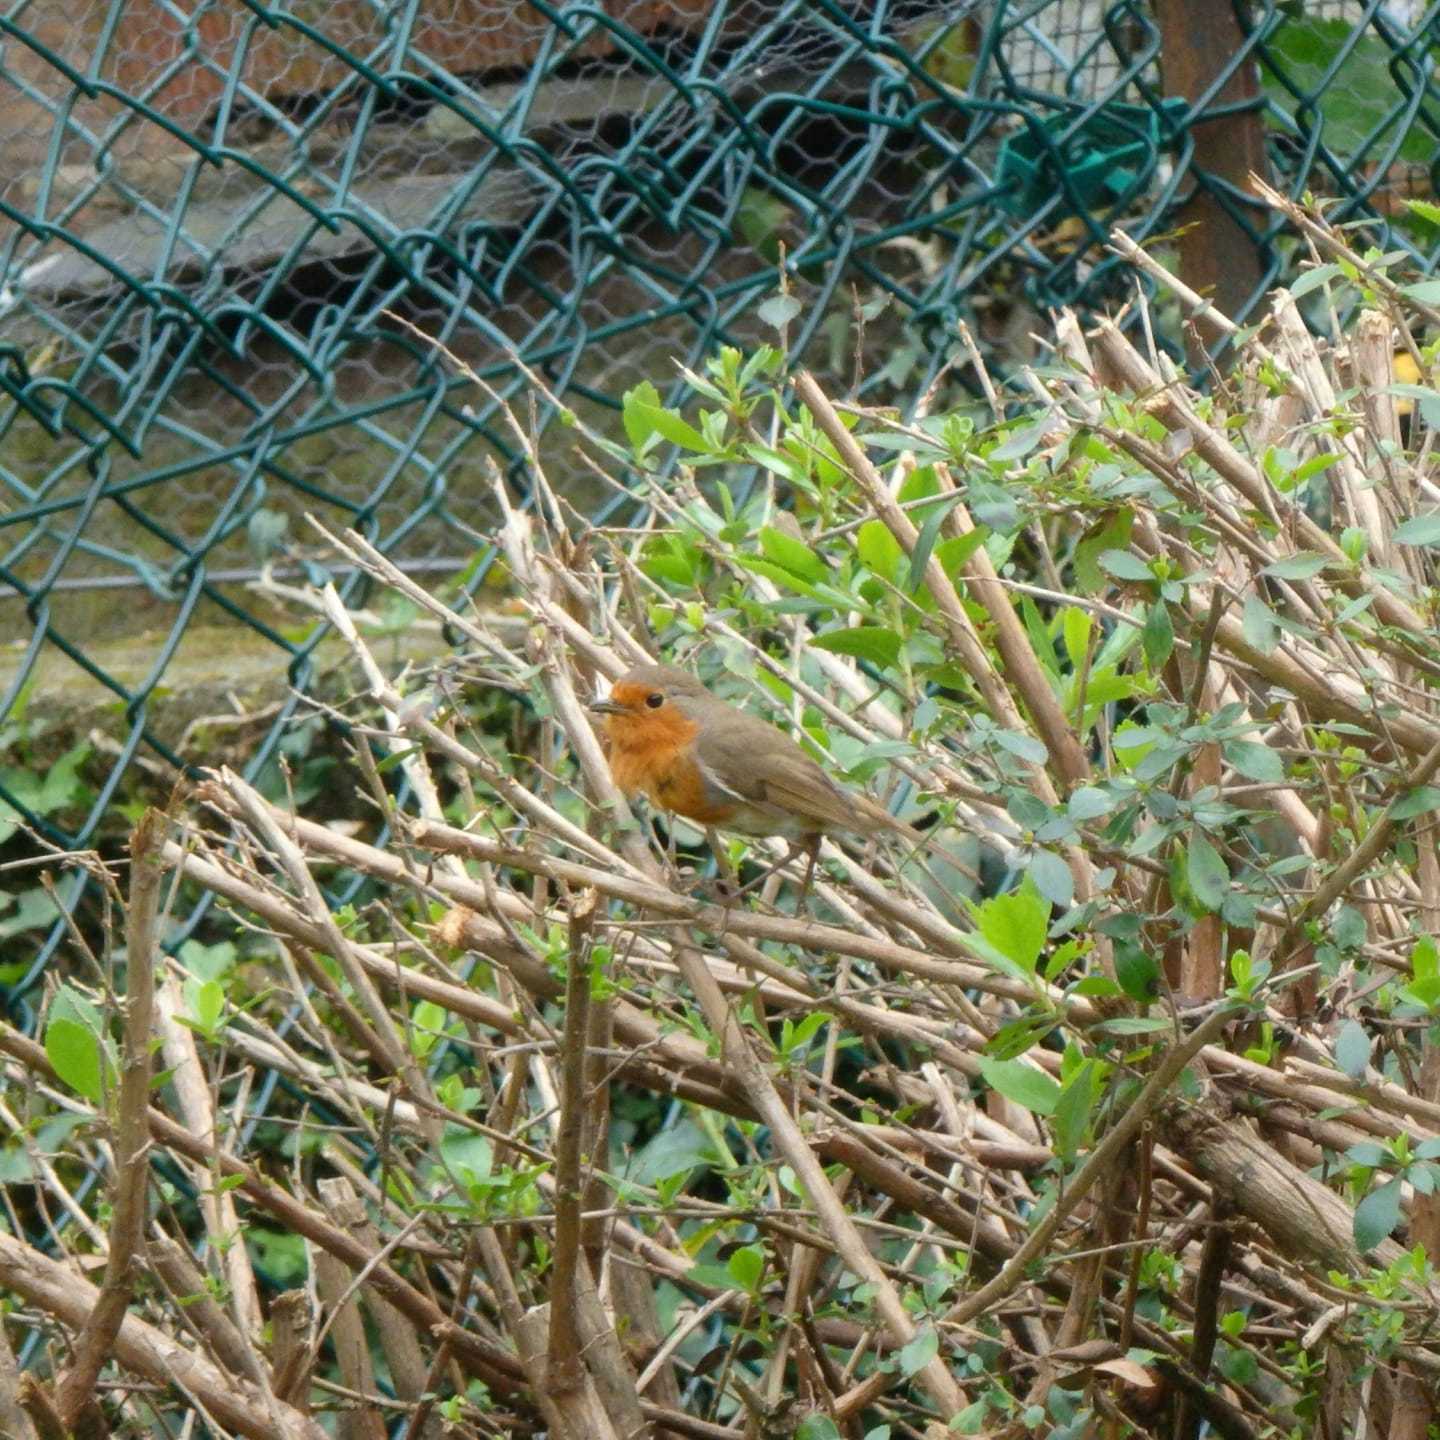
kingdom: Animalia
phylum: Chordata
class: Aves
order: Passeriformes
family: Muscicapidae
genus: Erithacus
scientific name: Erithacus rubecula
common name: European robin
